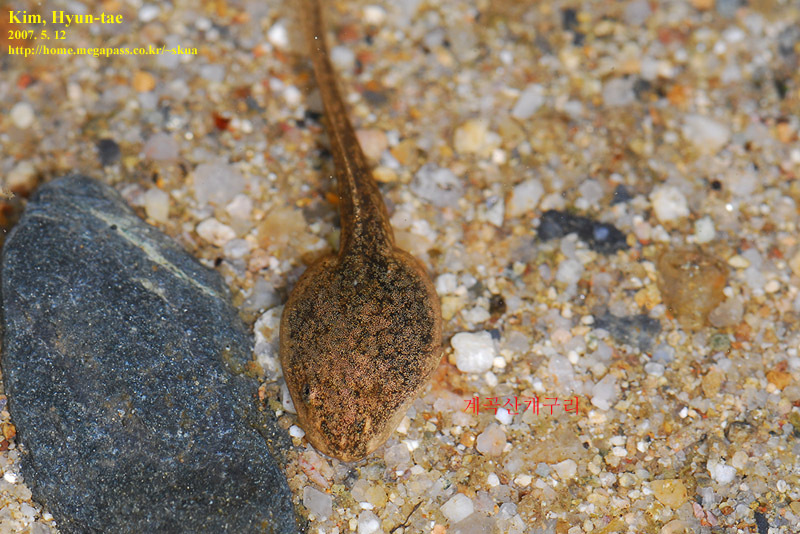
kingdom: Animalia
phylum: Chordata
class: Amphibia
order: Anura
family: Ranidae
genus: Rana
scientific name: Rana huanrenensis
